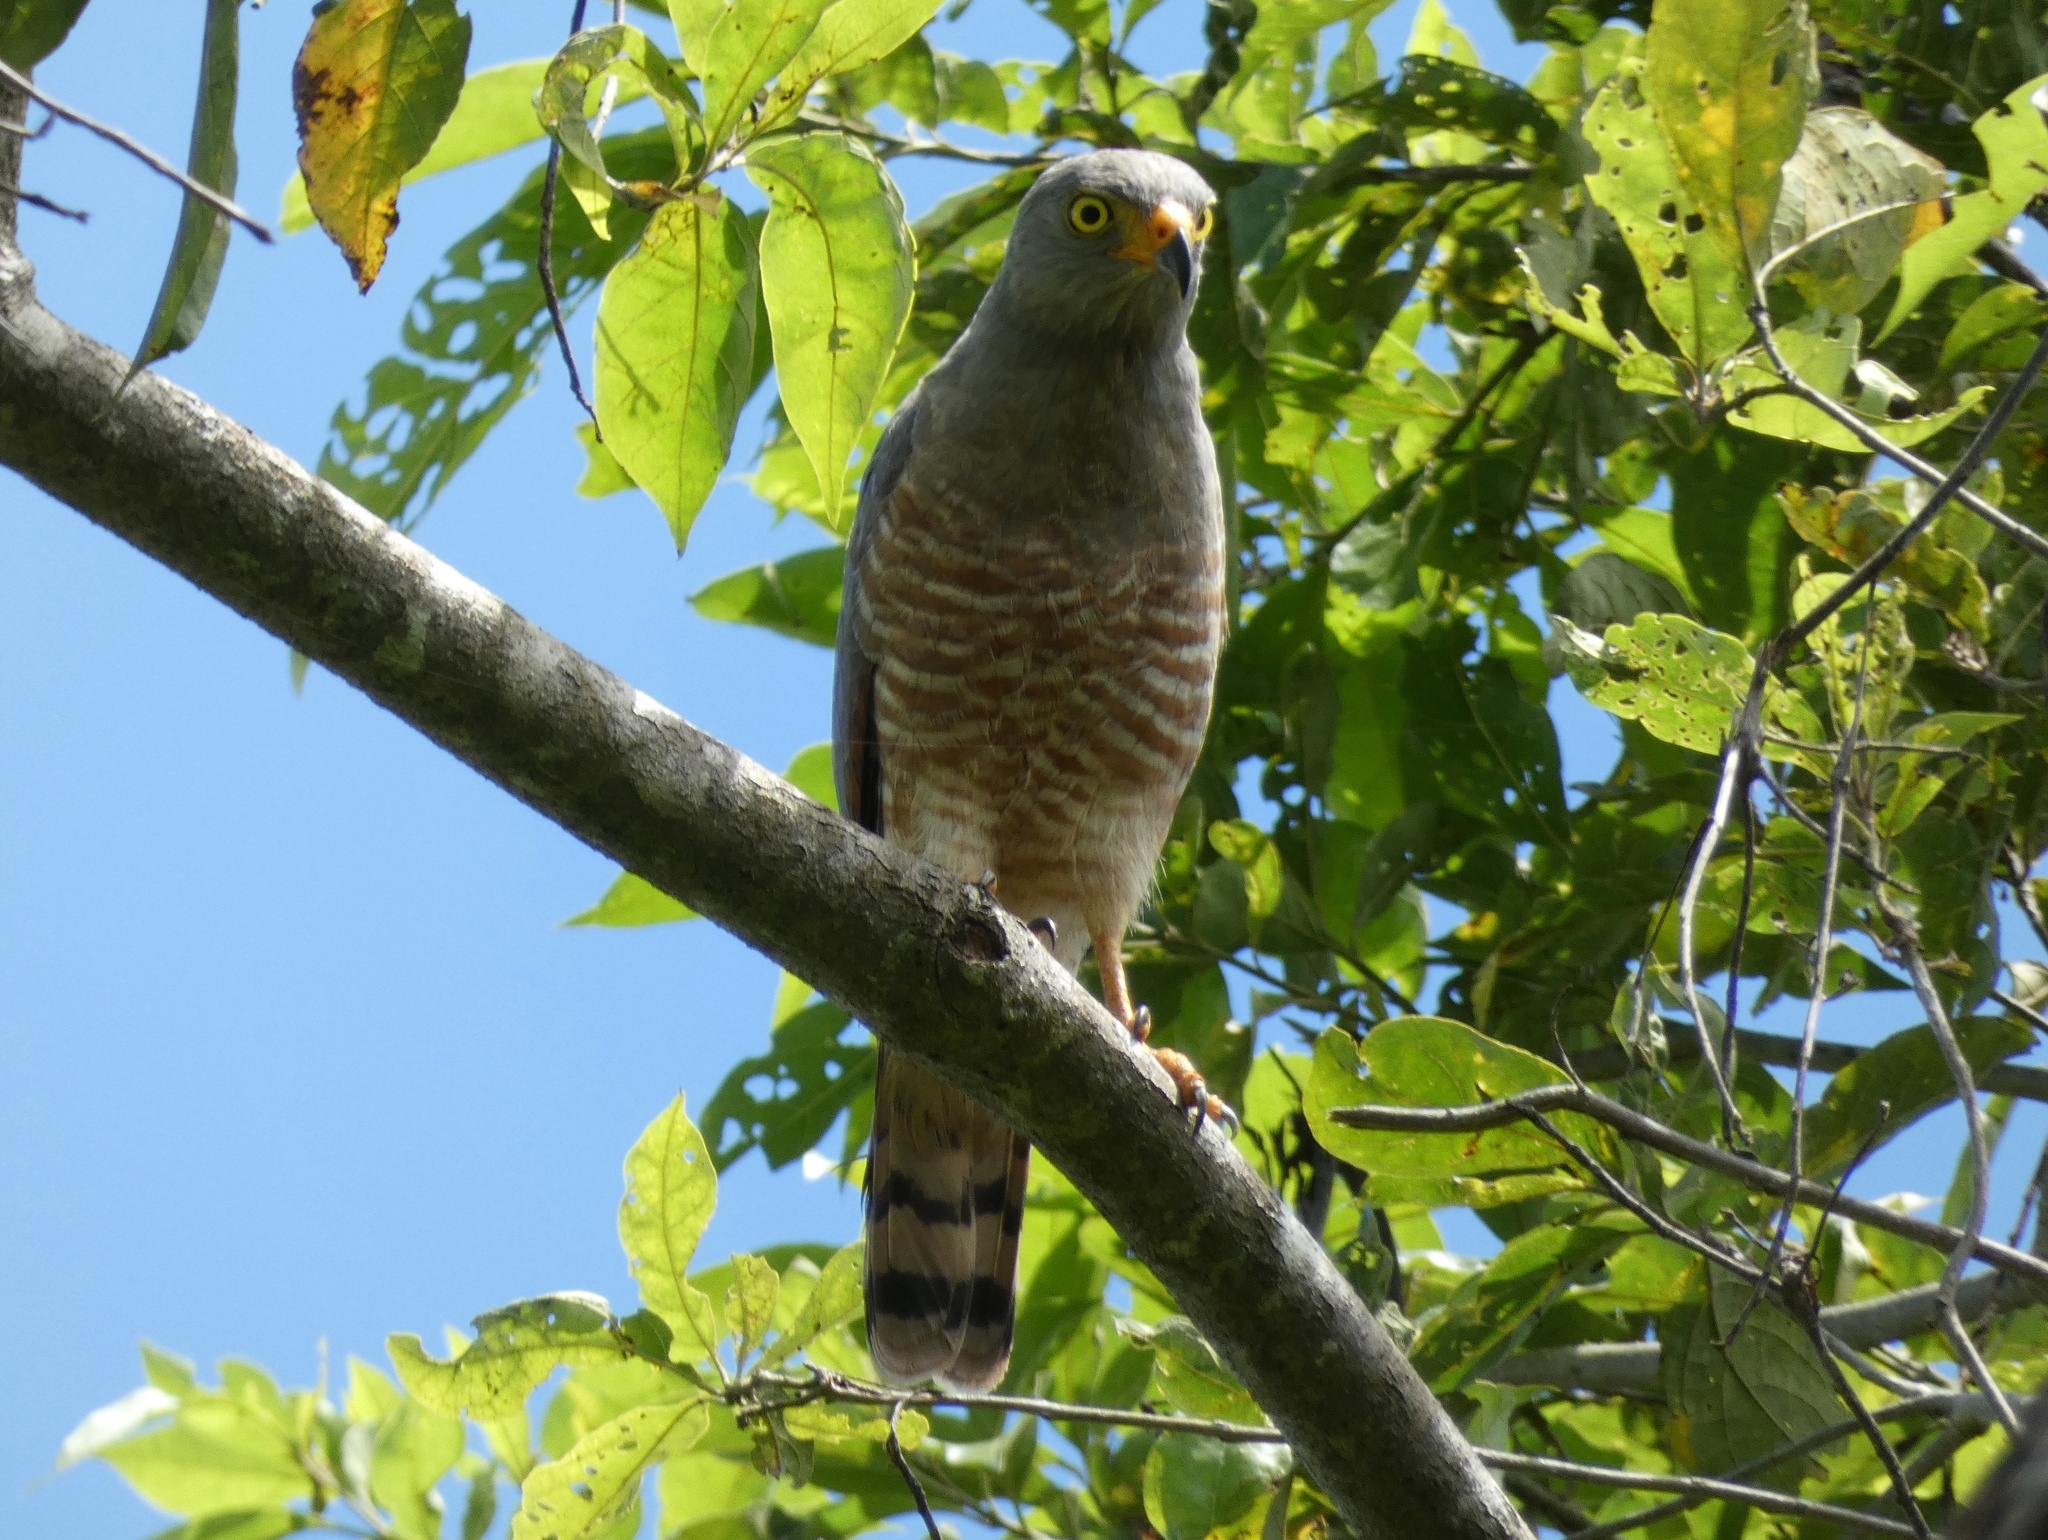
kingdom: Animalia
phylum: Chordata
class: Aves
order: Accipitriformes
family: Accipitridae
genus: Rupornis
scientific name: Rupornis magnirostris
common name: Roadside hawk
